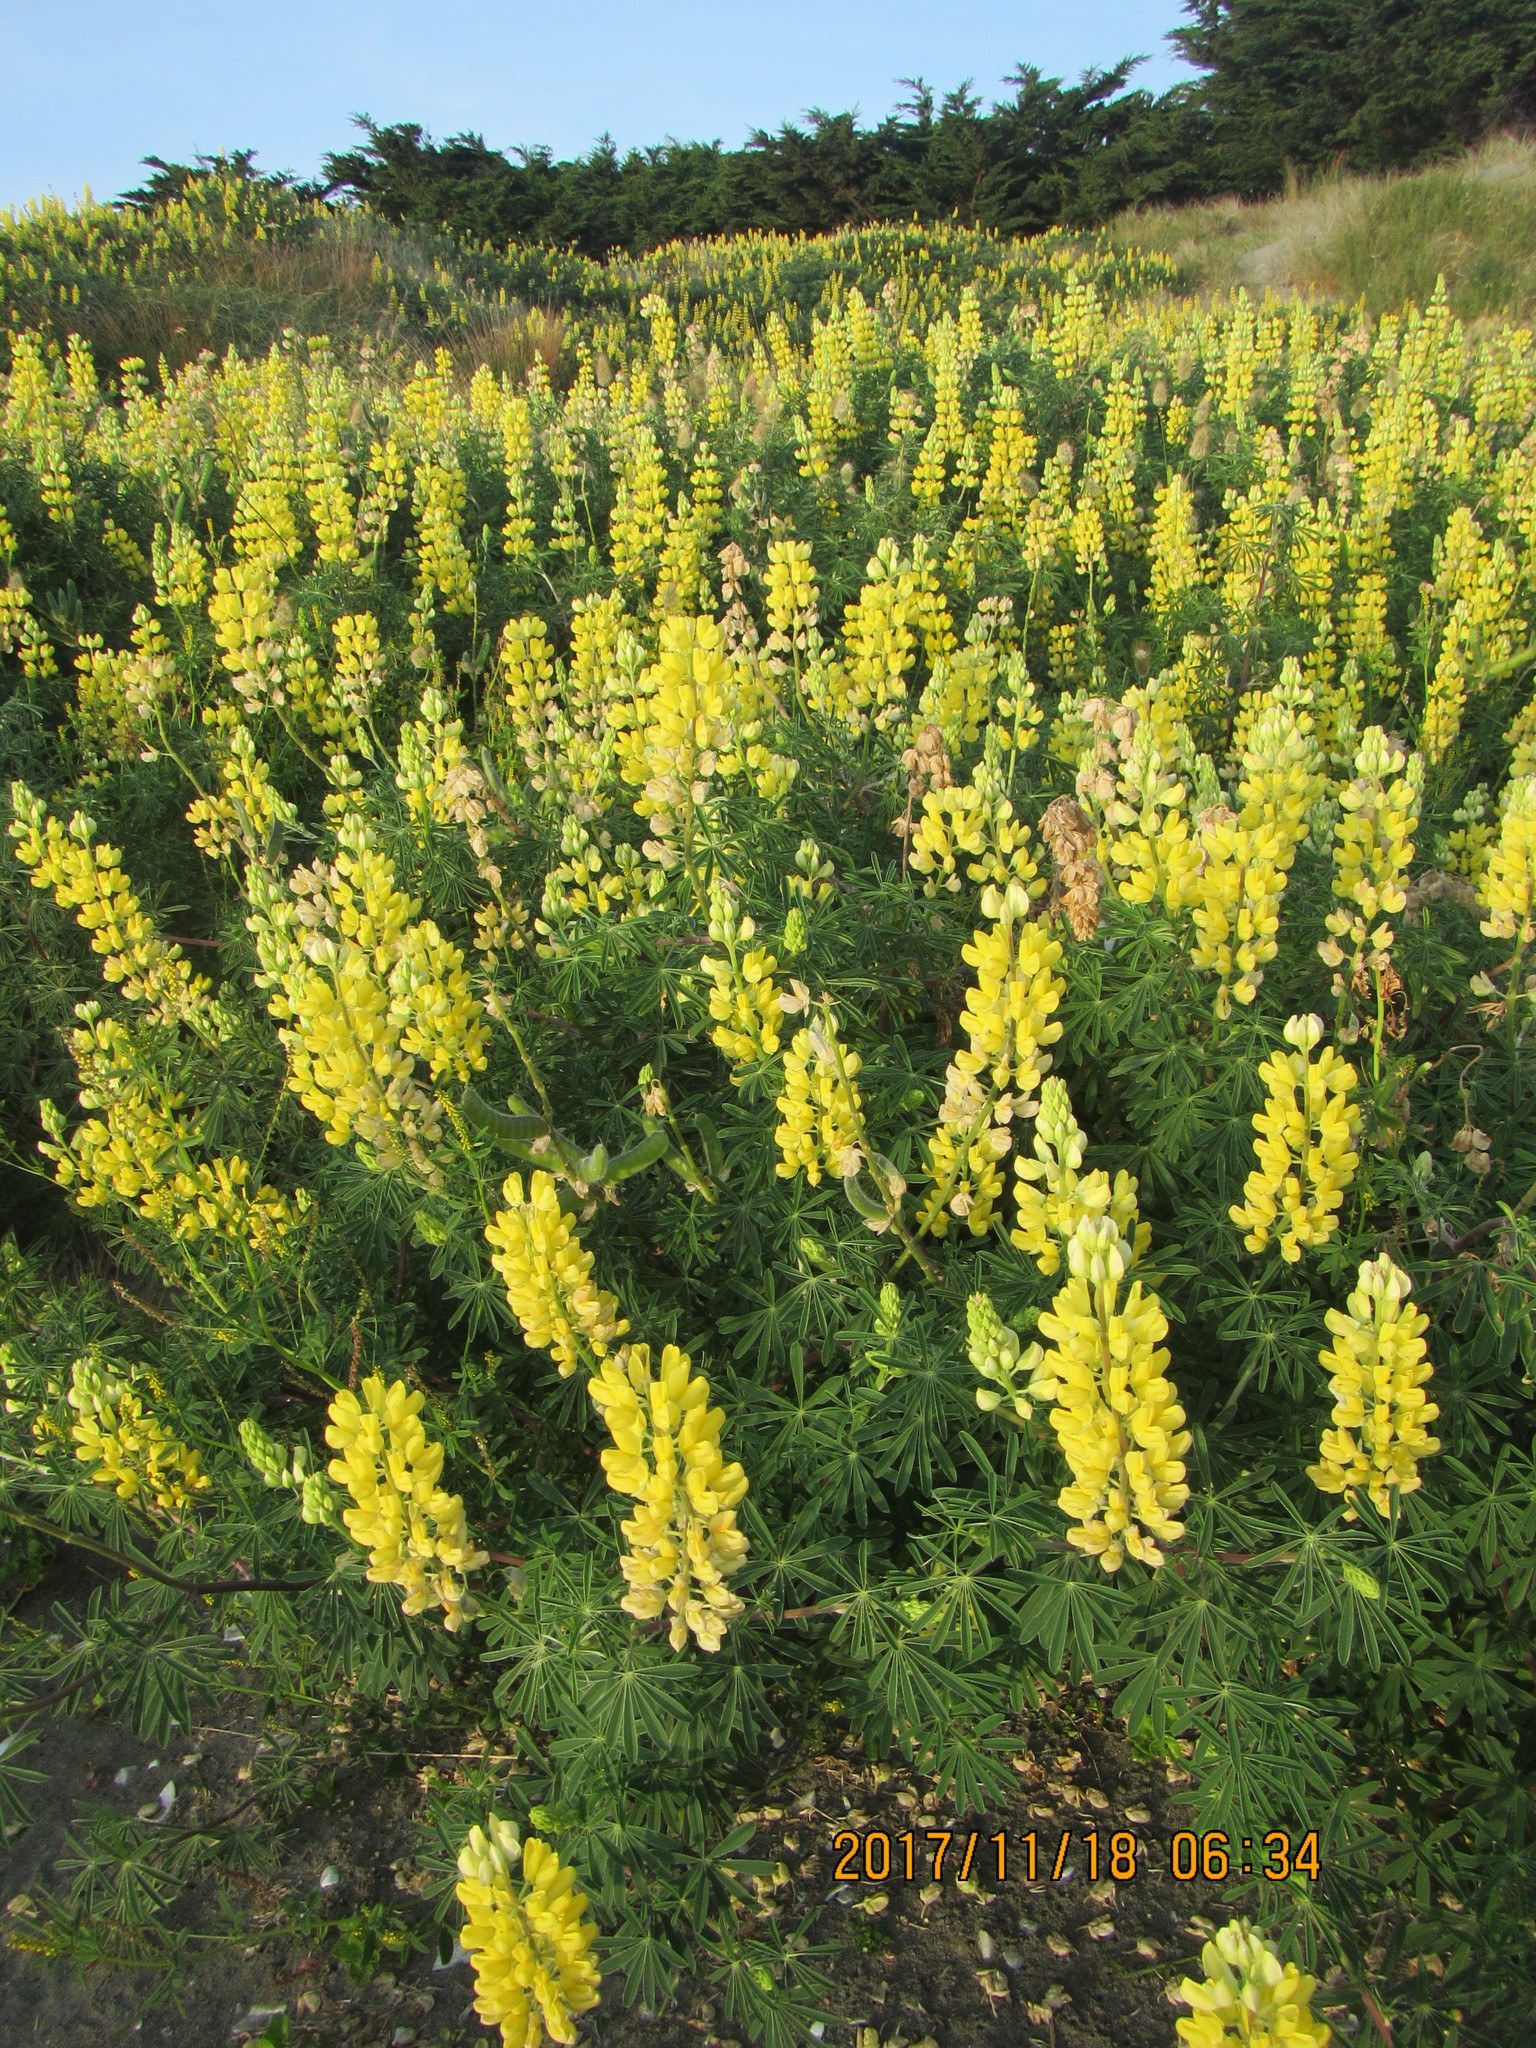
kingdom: Plantae
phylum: Tracheophyta
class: Magnoliopsida
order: Fabales
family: Fabaceae
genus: Lupinus
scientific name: Lupinus arboreus
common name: Yellow bush lupine
